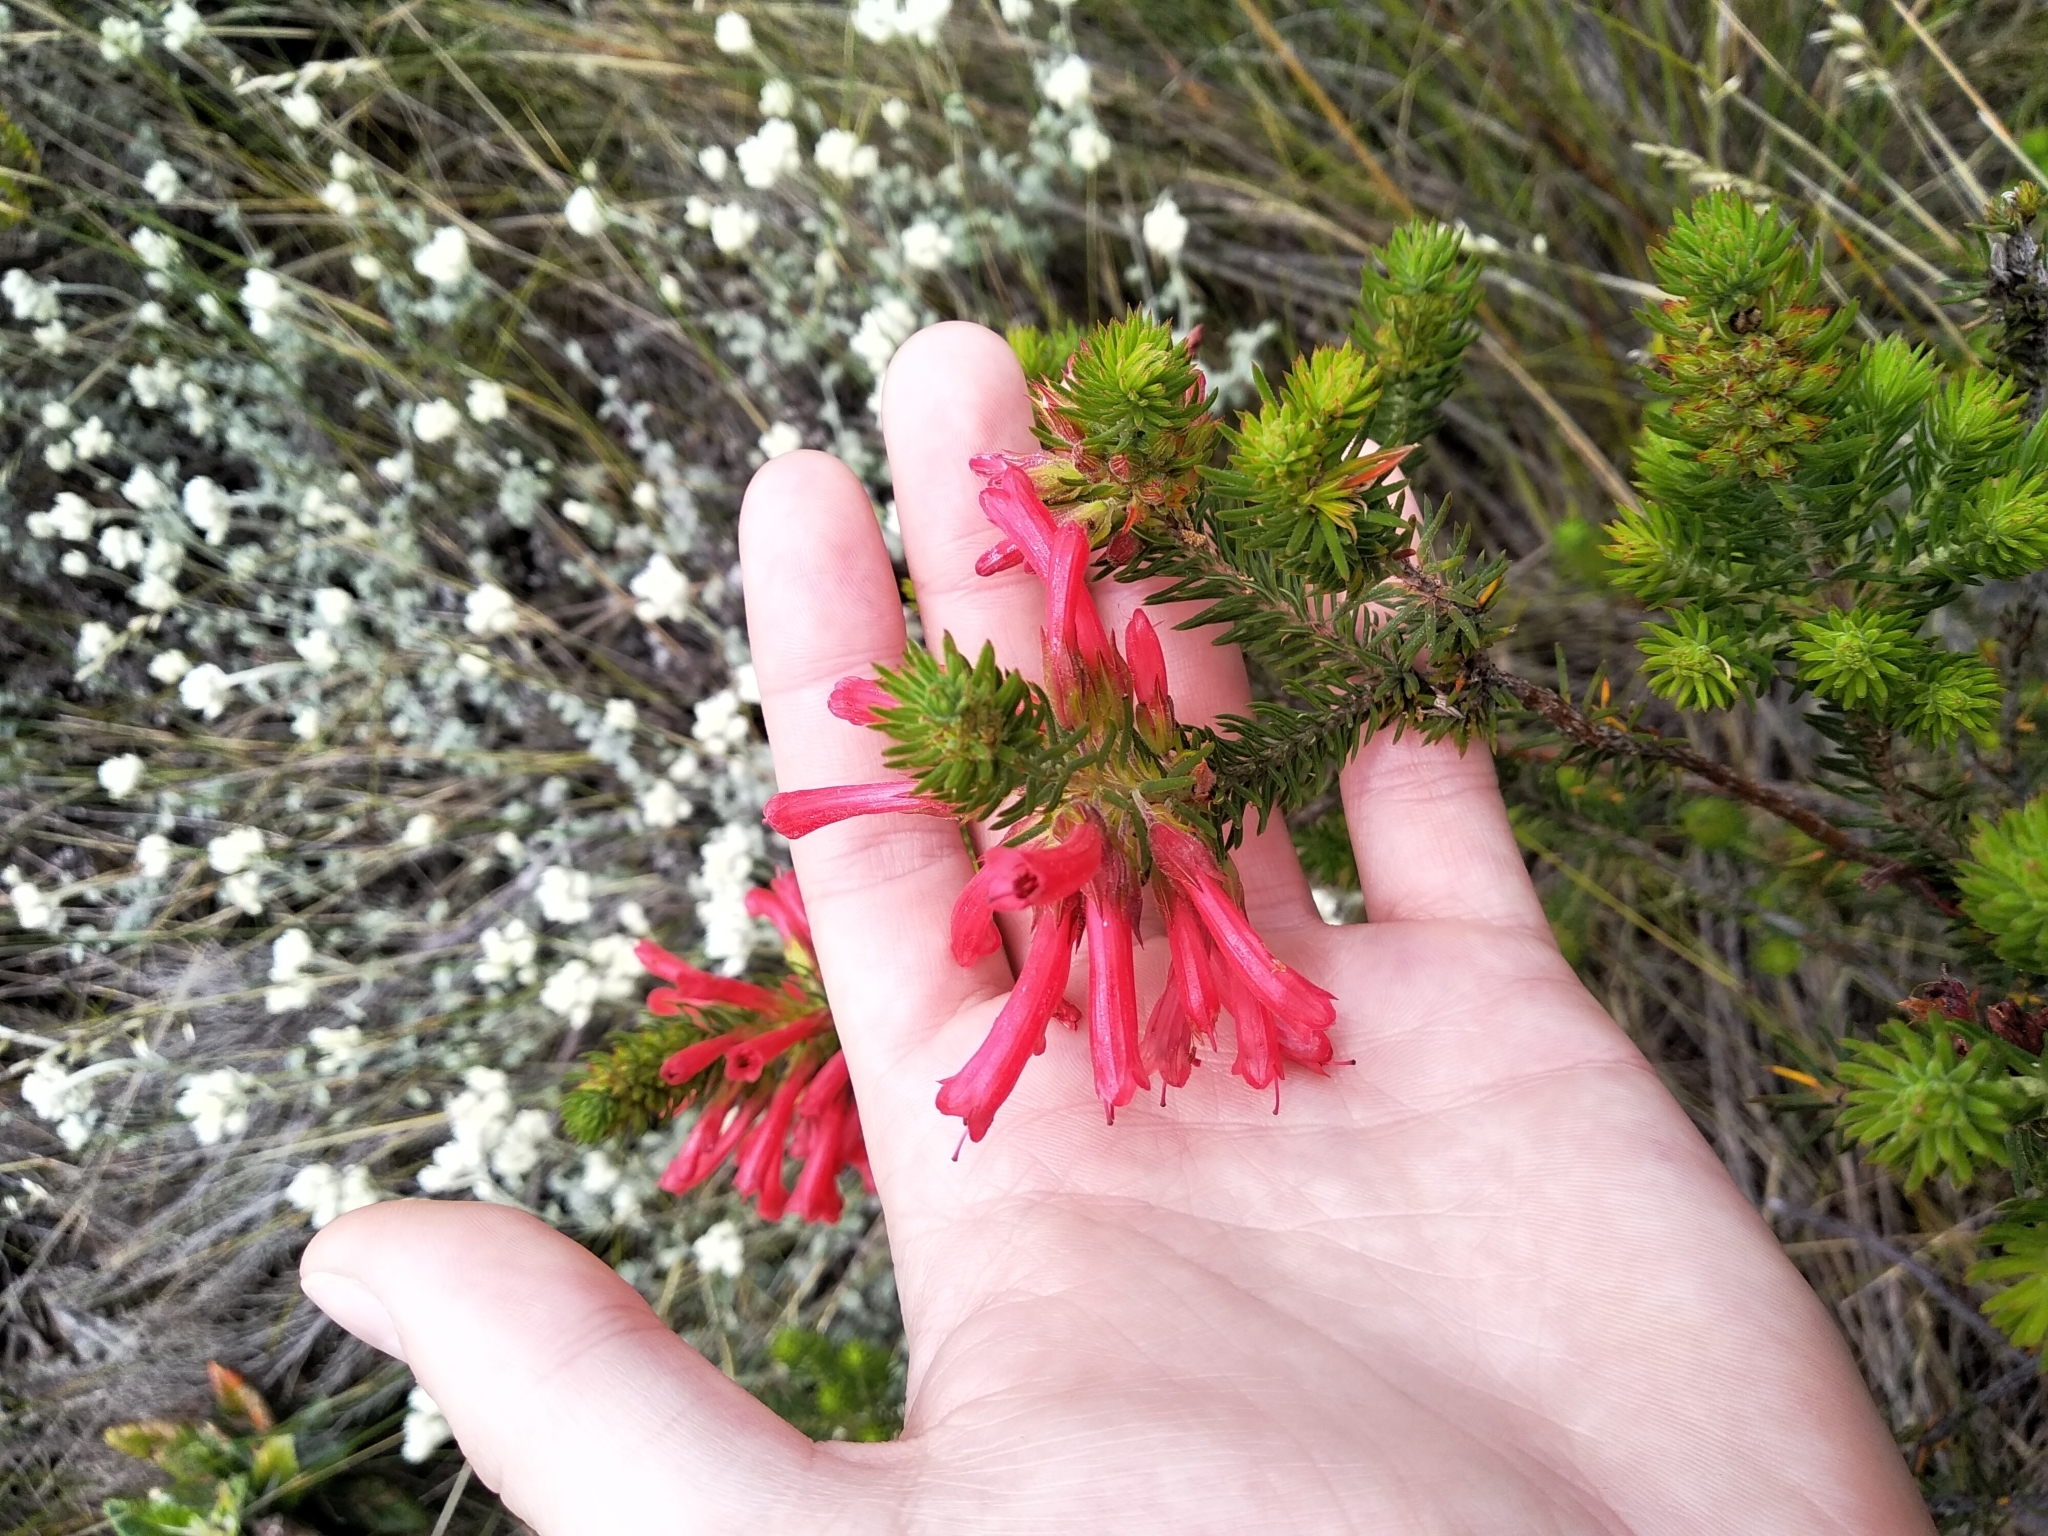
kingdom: Plantae
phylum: Tracheophyta
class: Magnoliopsida
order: Ericales
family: Ericaceae
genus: Erica
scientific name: Erica abietina
